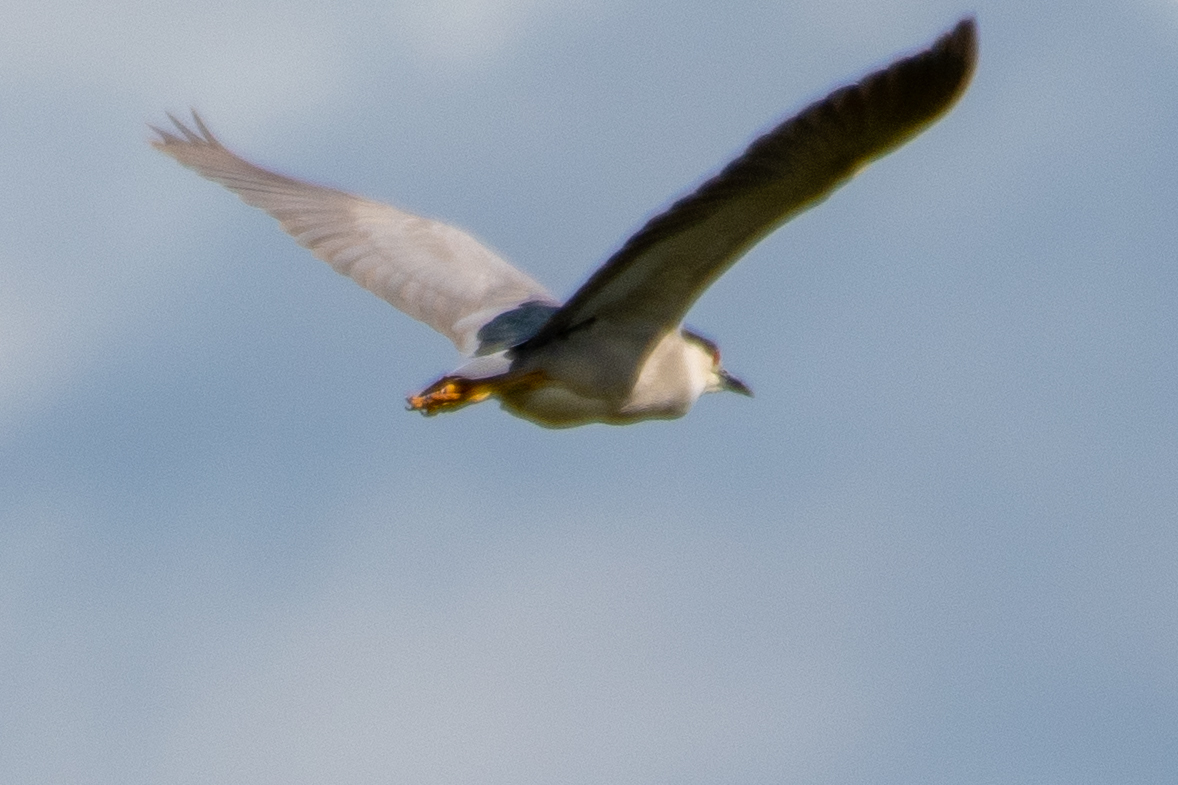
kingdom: Animalia
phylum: Chordata
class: Aves
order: Pelecaniformes
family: Ardeidae
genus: Nycticorax
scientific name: Nycticorax nycticorax
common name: Black-crowned night heron
